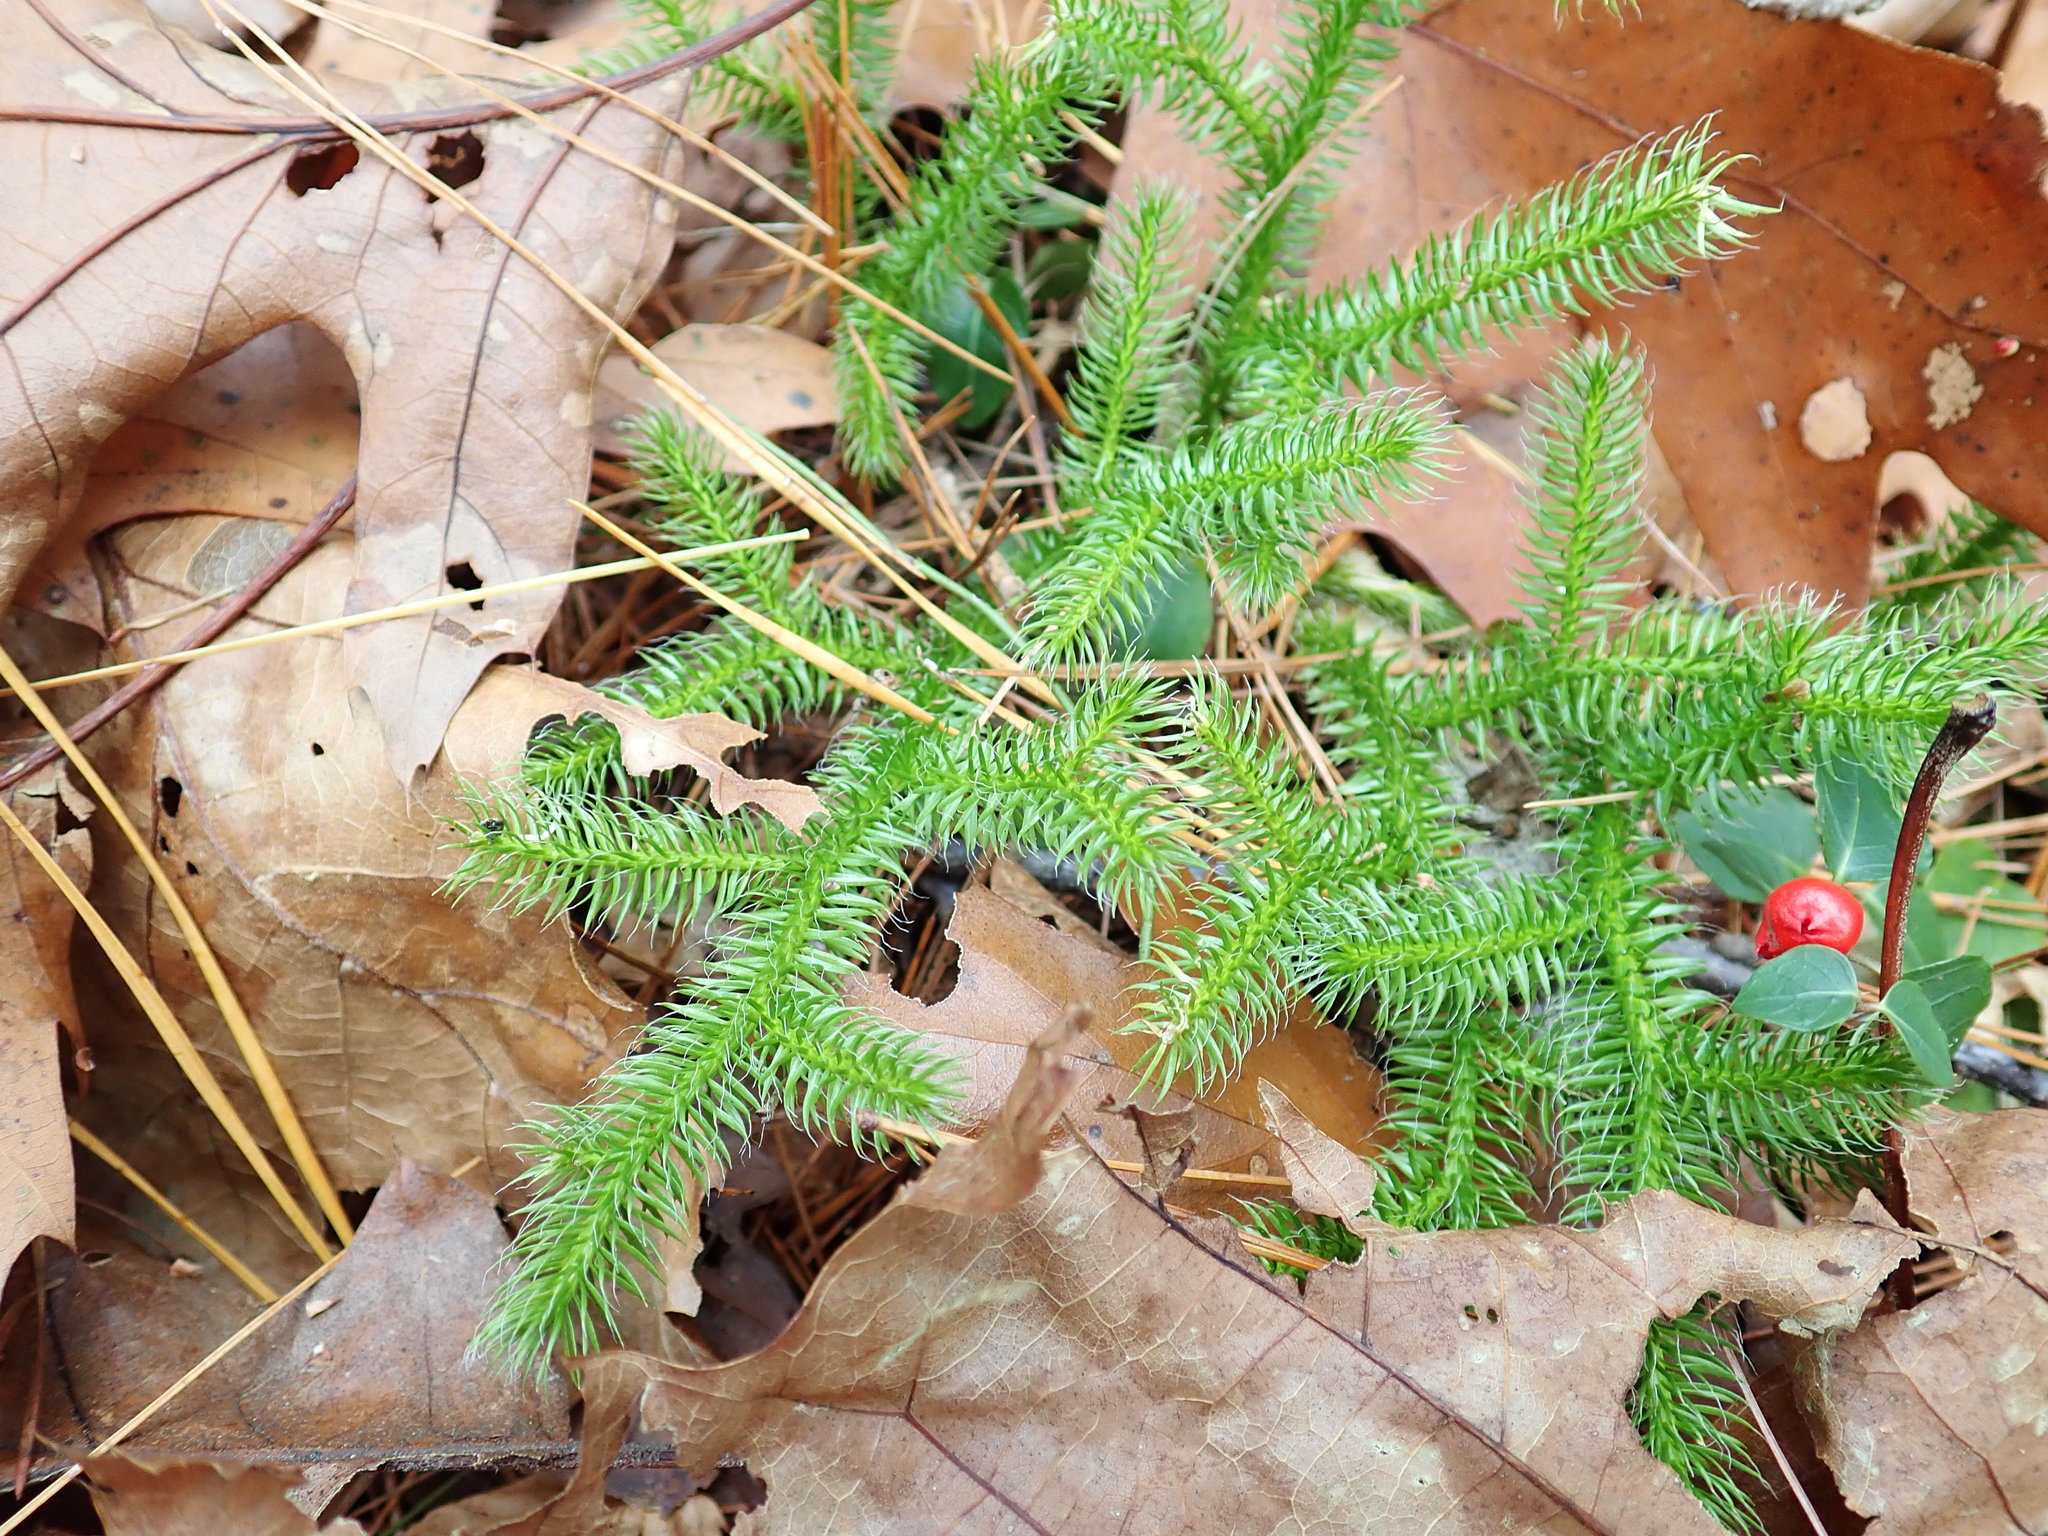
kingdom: Plantae
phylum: Tracheophyta
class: Lycopodiopsida
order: Lycopodiales
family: Lycopodiaceae
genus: Lycopodium
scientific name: Lycopodium clavatum
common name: Stag's-horn clubmoss
